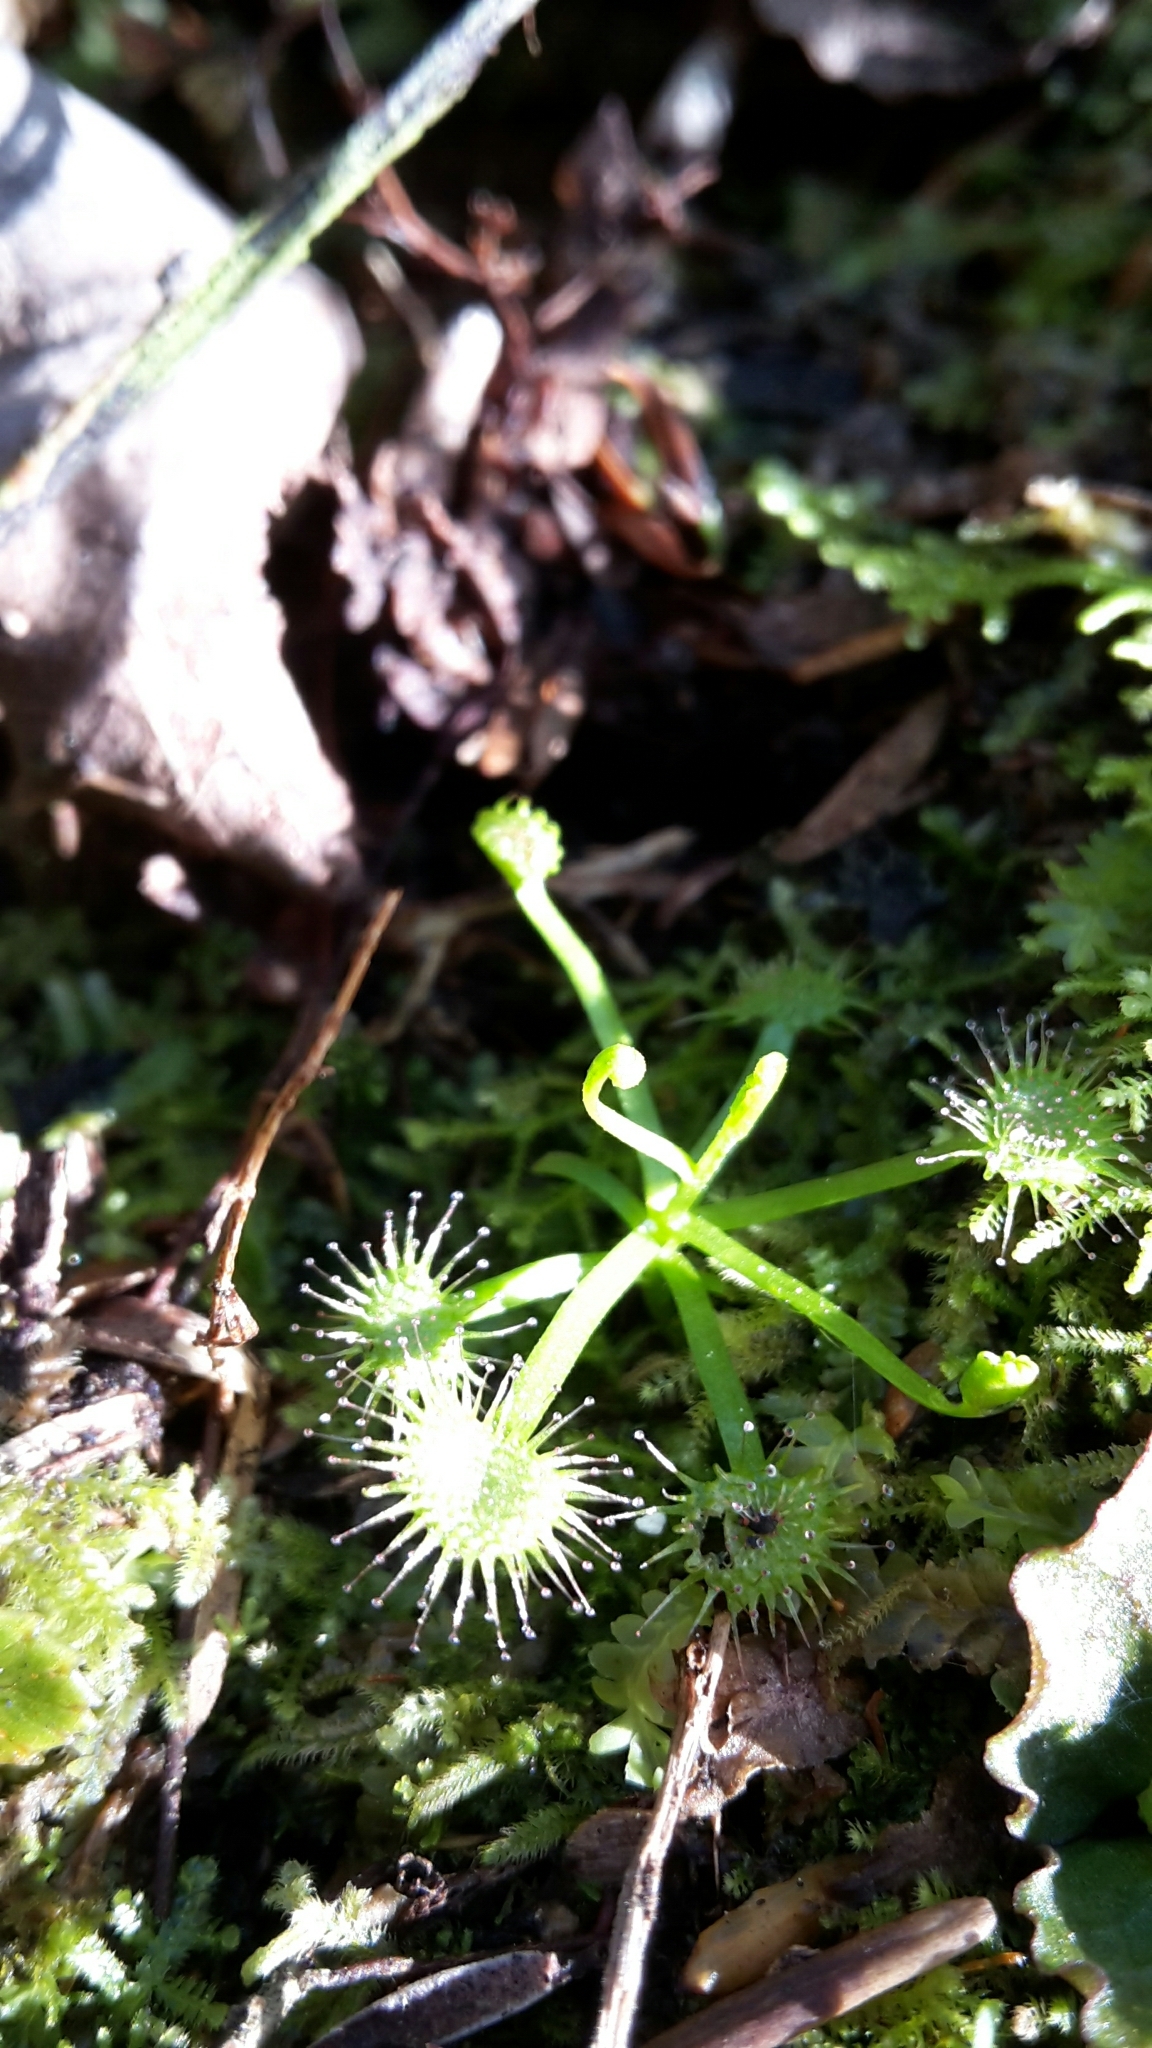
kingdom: Plantae
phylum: Tracheophyta
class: Magnoliopsida
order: Caryophyllales
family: Droseraceae
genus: Drosera
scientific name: Drosera peltata
